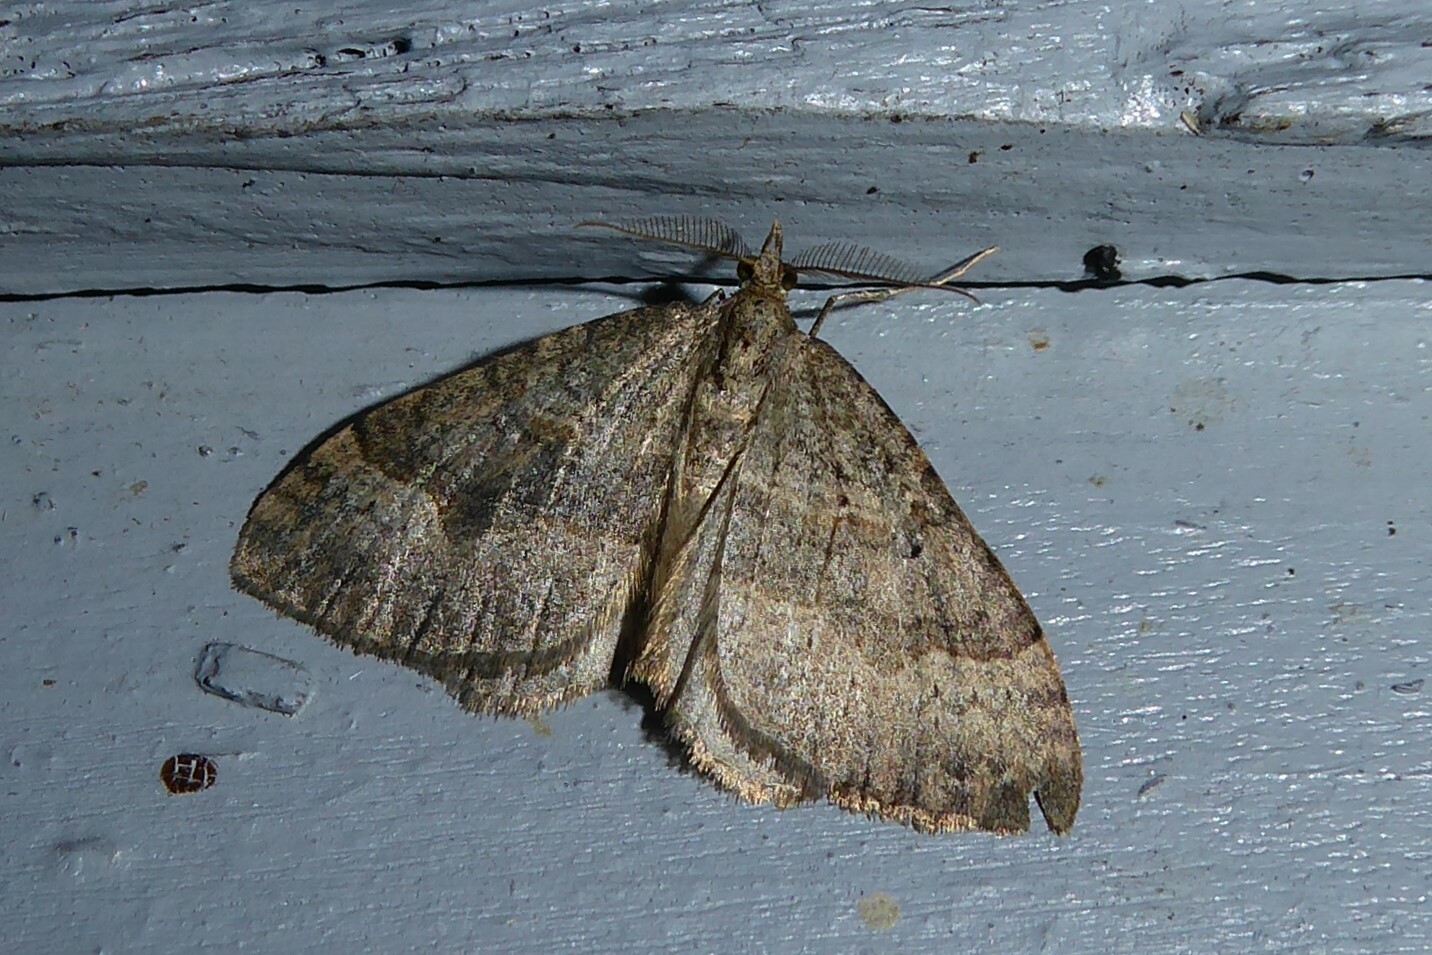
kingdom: Animalia
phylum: Arthropoda
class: Insecta
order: Lepidoptera
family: Geometridae
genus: Epyaxa
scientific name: Epyaxa rosearia
